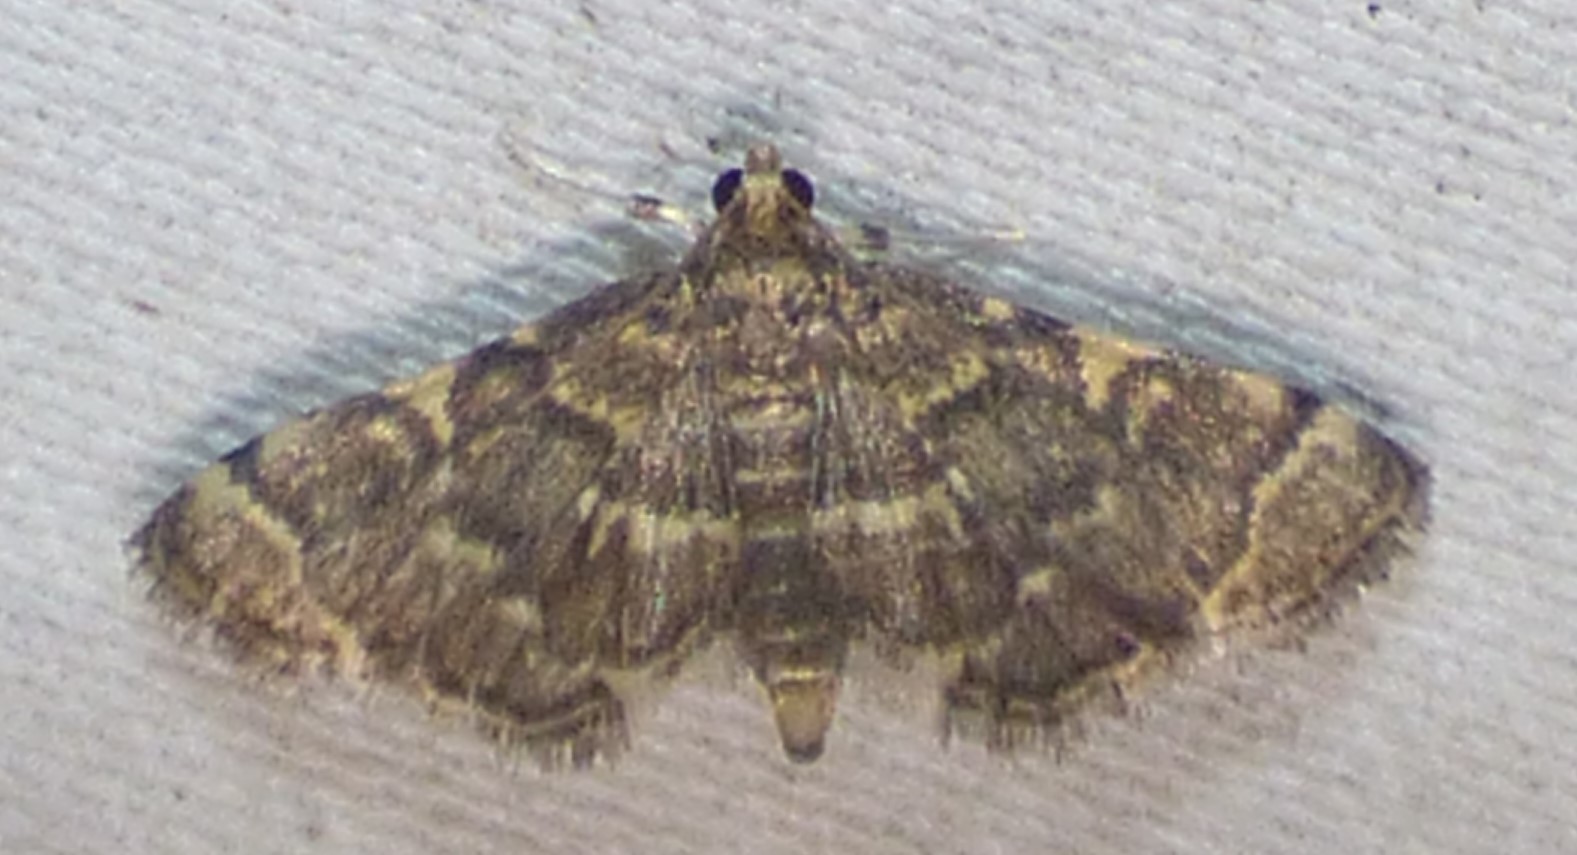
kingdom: Animalia
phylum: Arthropoda
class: Insecta
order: Lepidoptera
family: Crambidae
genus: Anageshna
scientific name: Anageshna primordialis
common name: Yellow-spotted webworm moth
